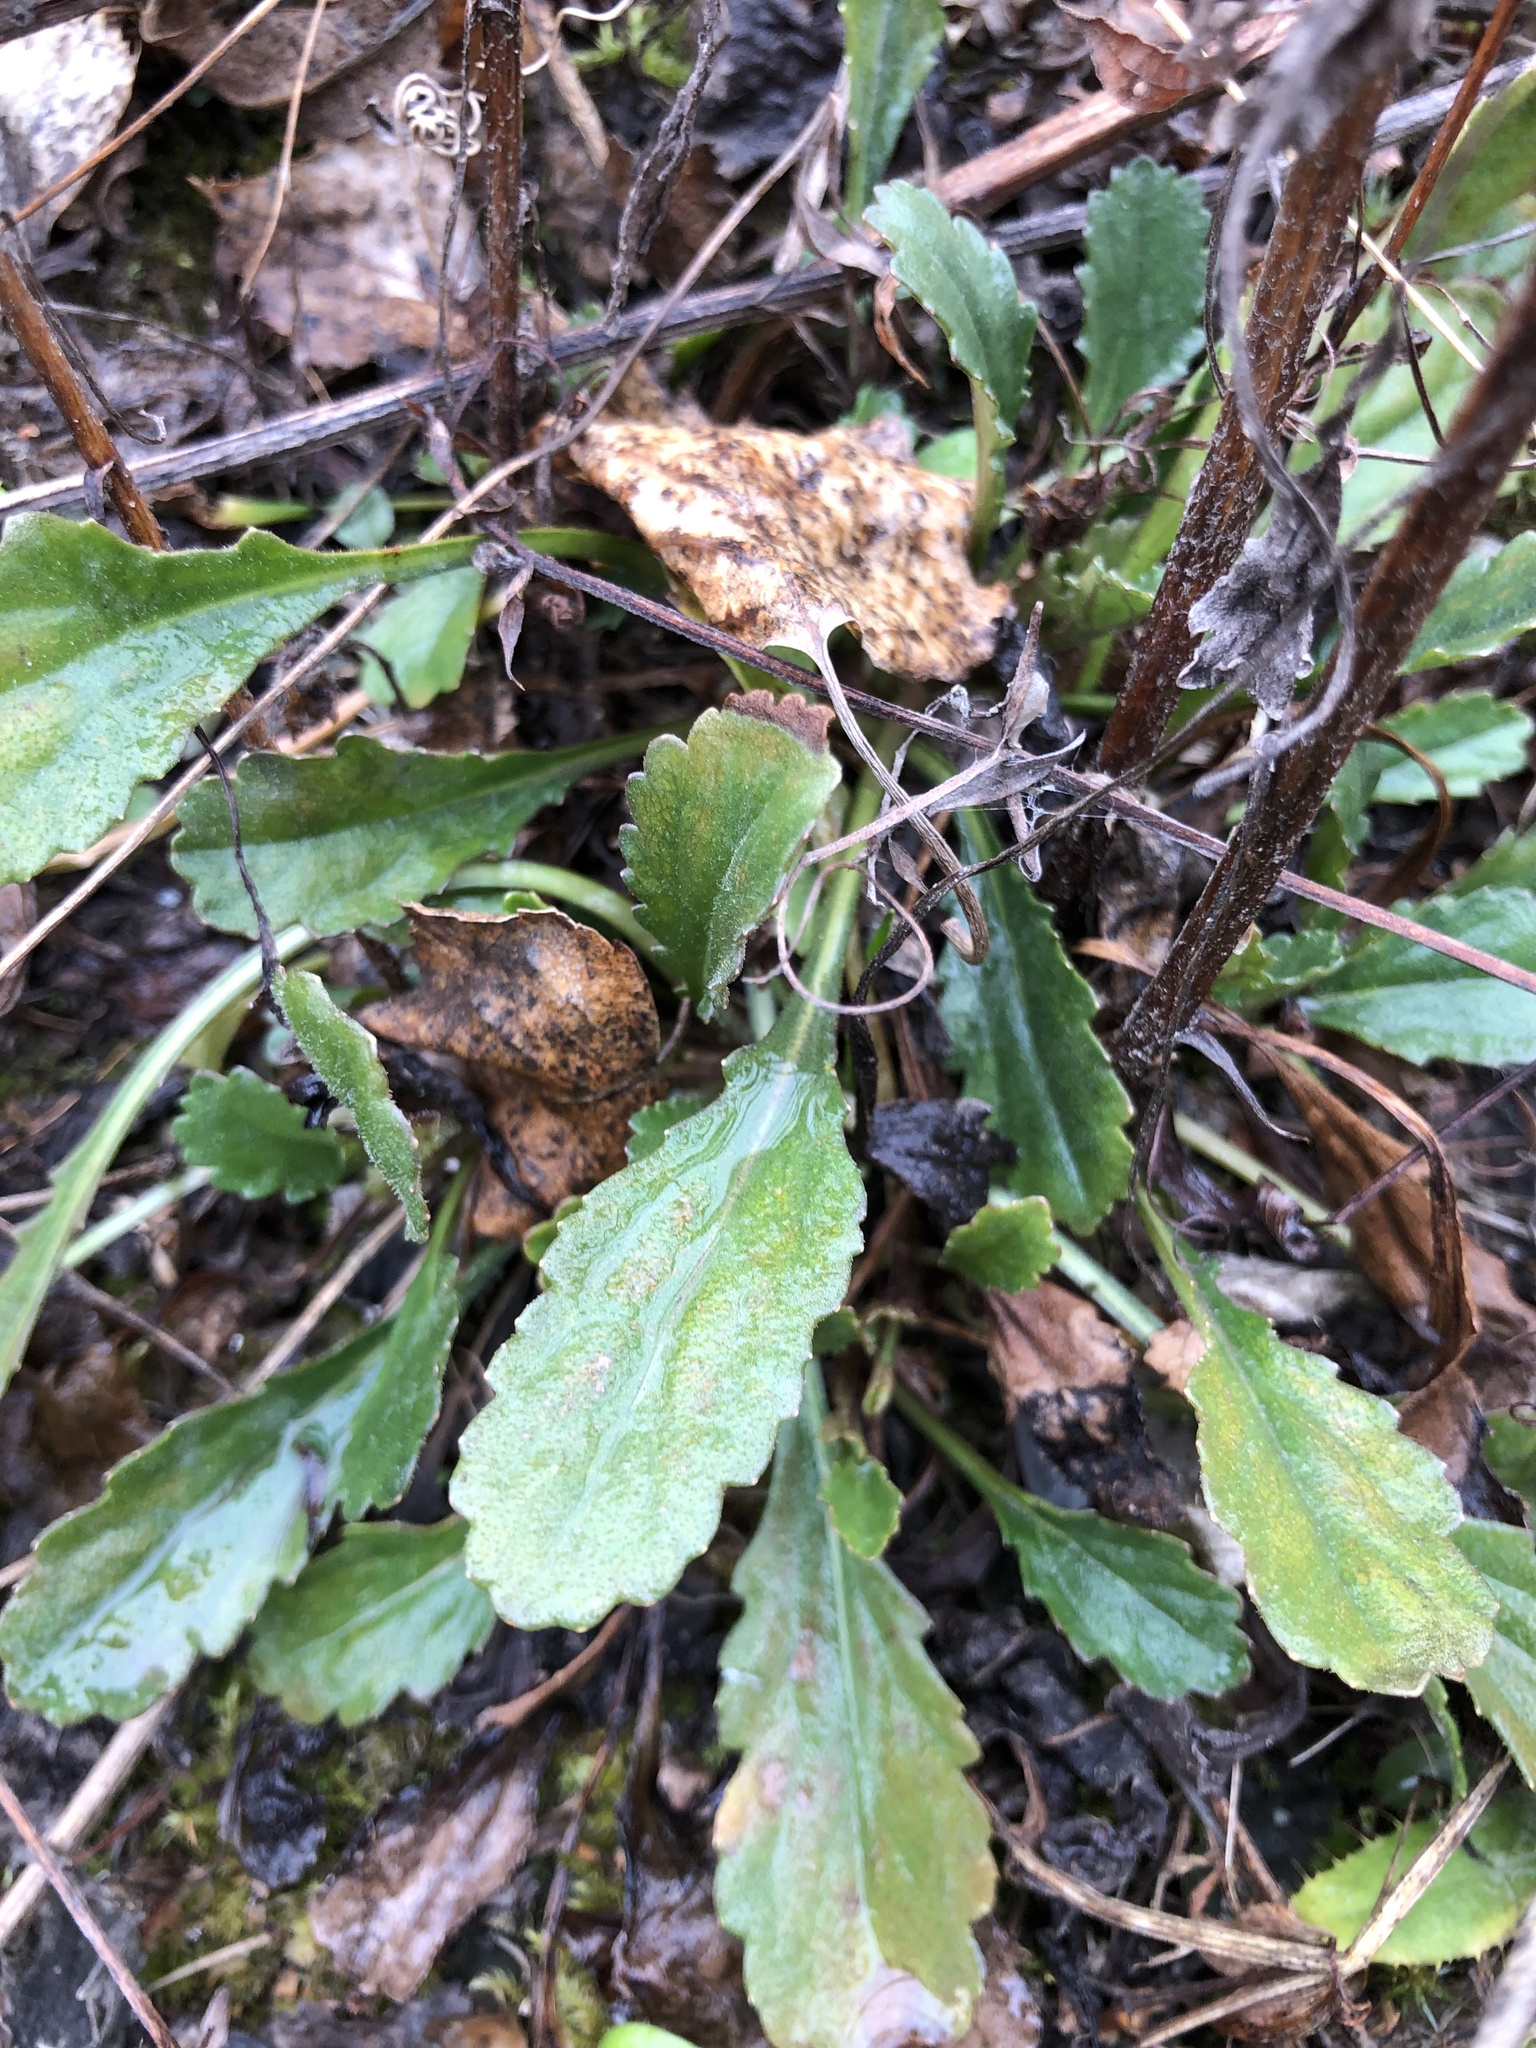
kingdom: Plantae
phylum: Tracheophyta
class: Magnoliopsida
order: Asterales
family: Asteraceae
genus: Leucanthemum
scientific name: Leucanthemum ircutianum
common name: Daisy
